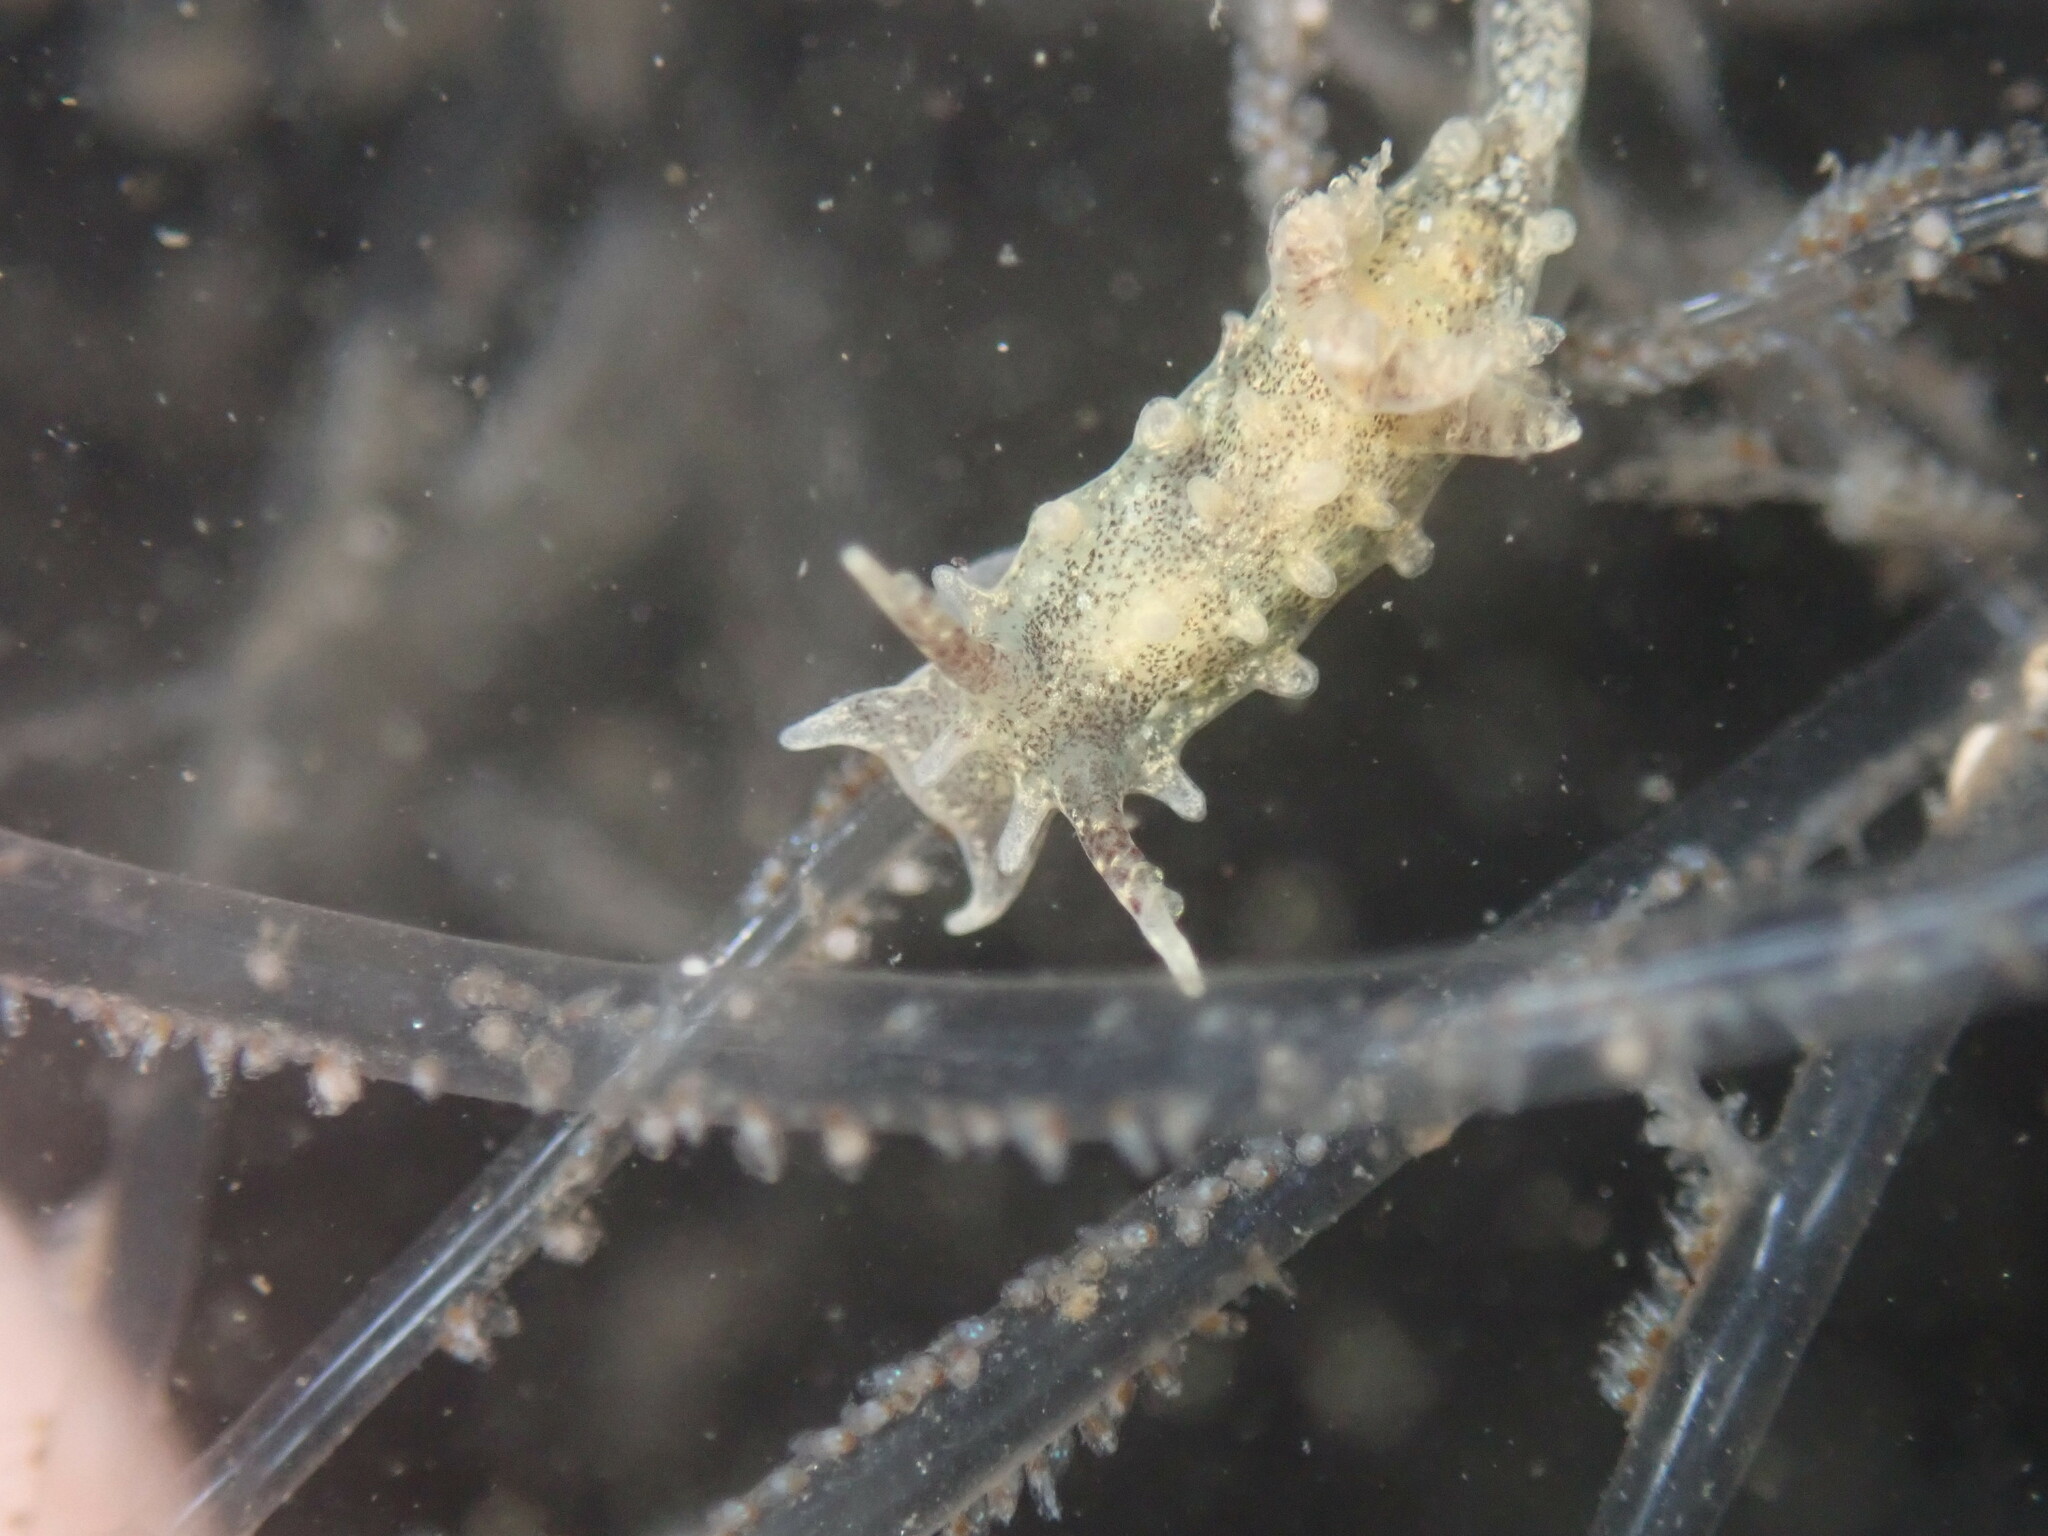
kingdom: Animalia
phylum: Mollusca
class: Gastropoda
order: Nudibranchia
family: Goniodorididae
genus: Okenia
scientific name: Okenia
